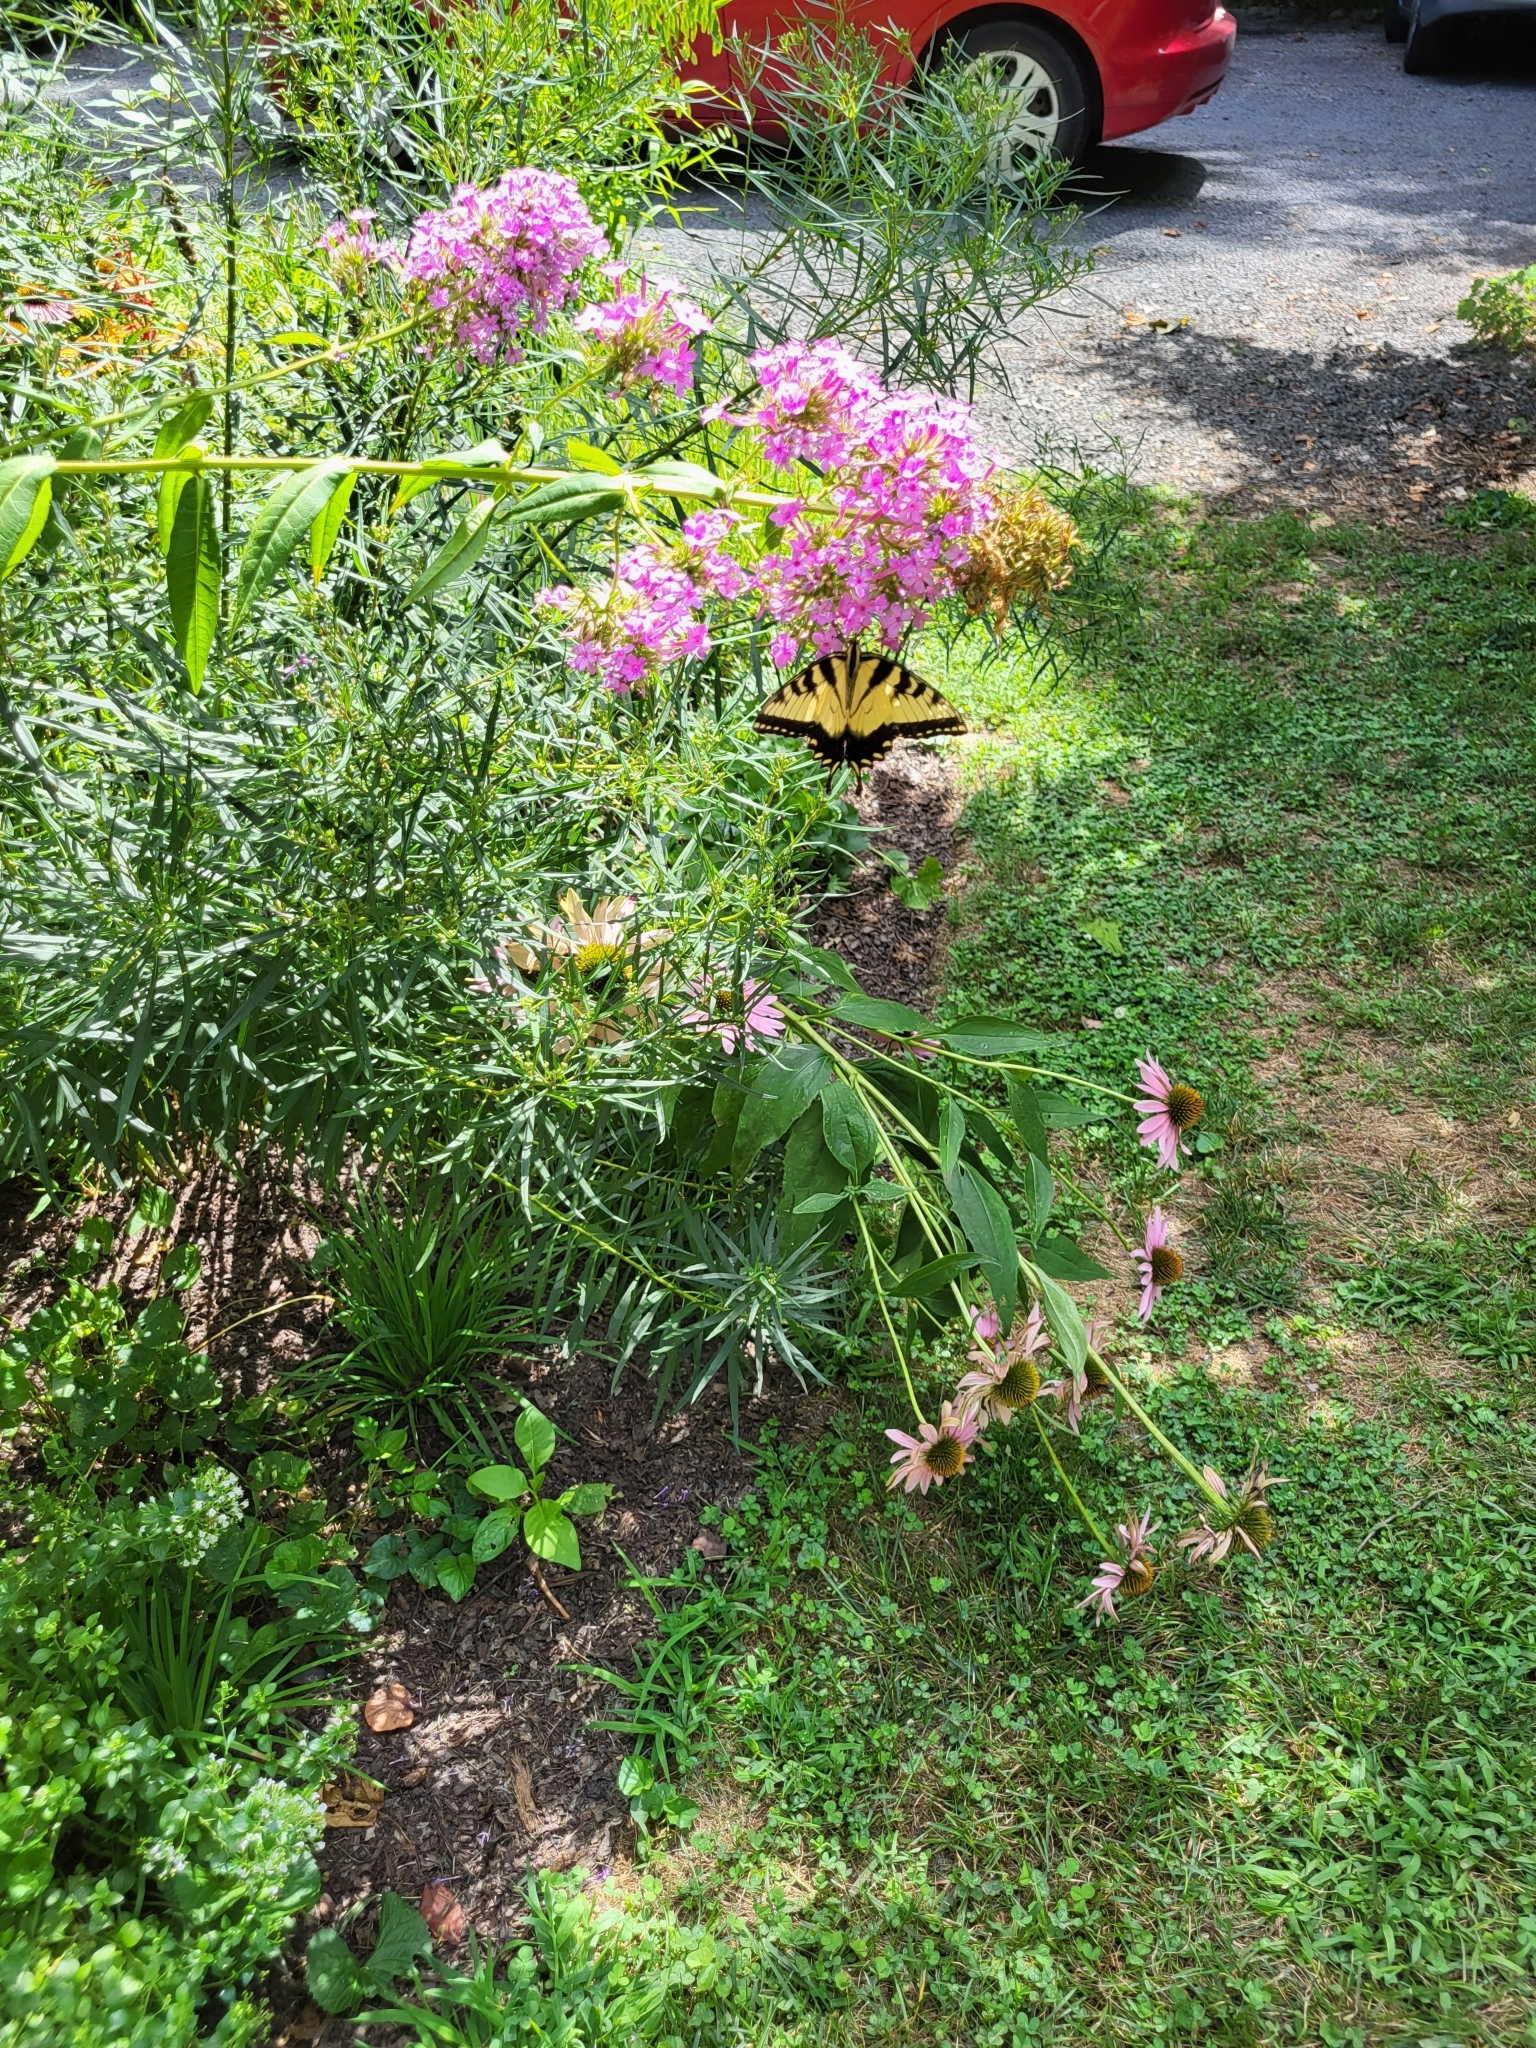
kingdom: Animalia
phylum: Arthropoda
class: Insecta
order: Lepidoptera
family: Papilionidae
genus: Papilio
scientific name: Papilio glaucus
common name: Tiger swallowtail
